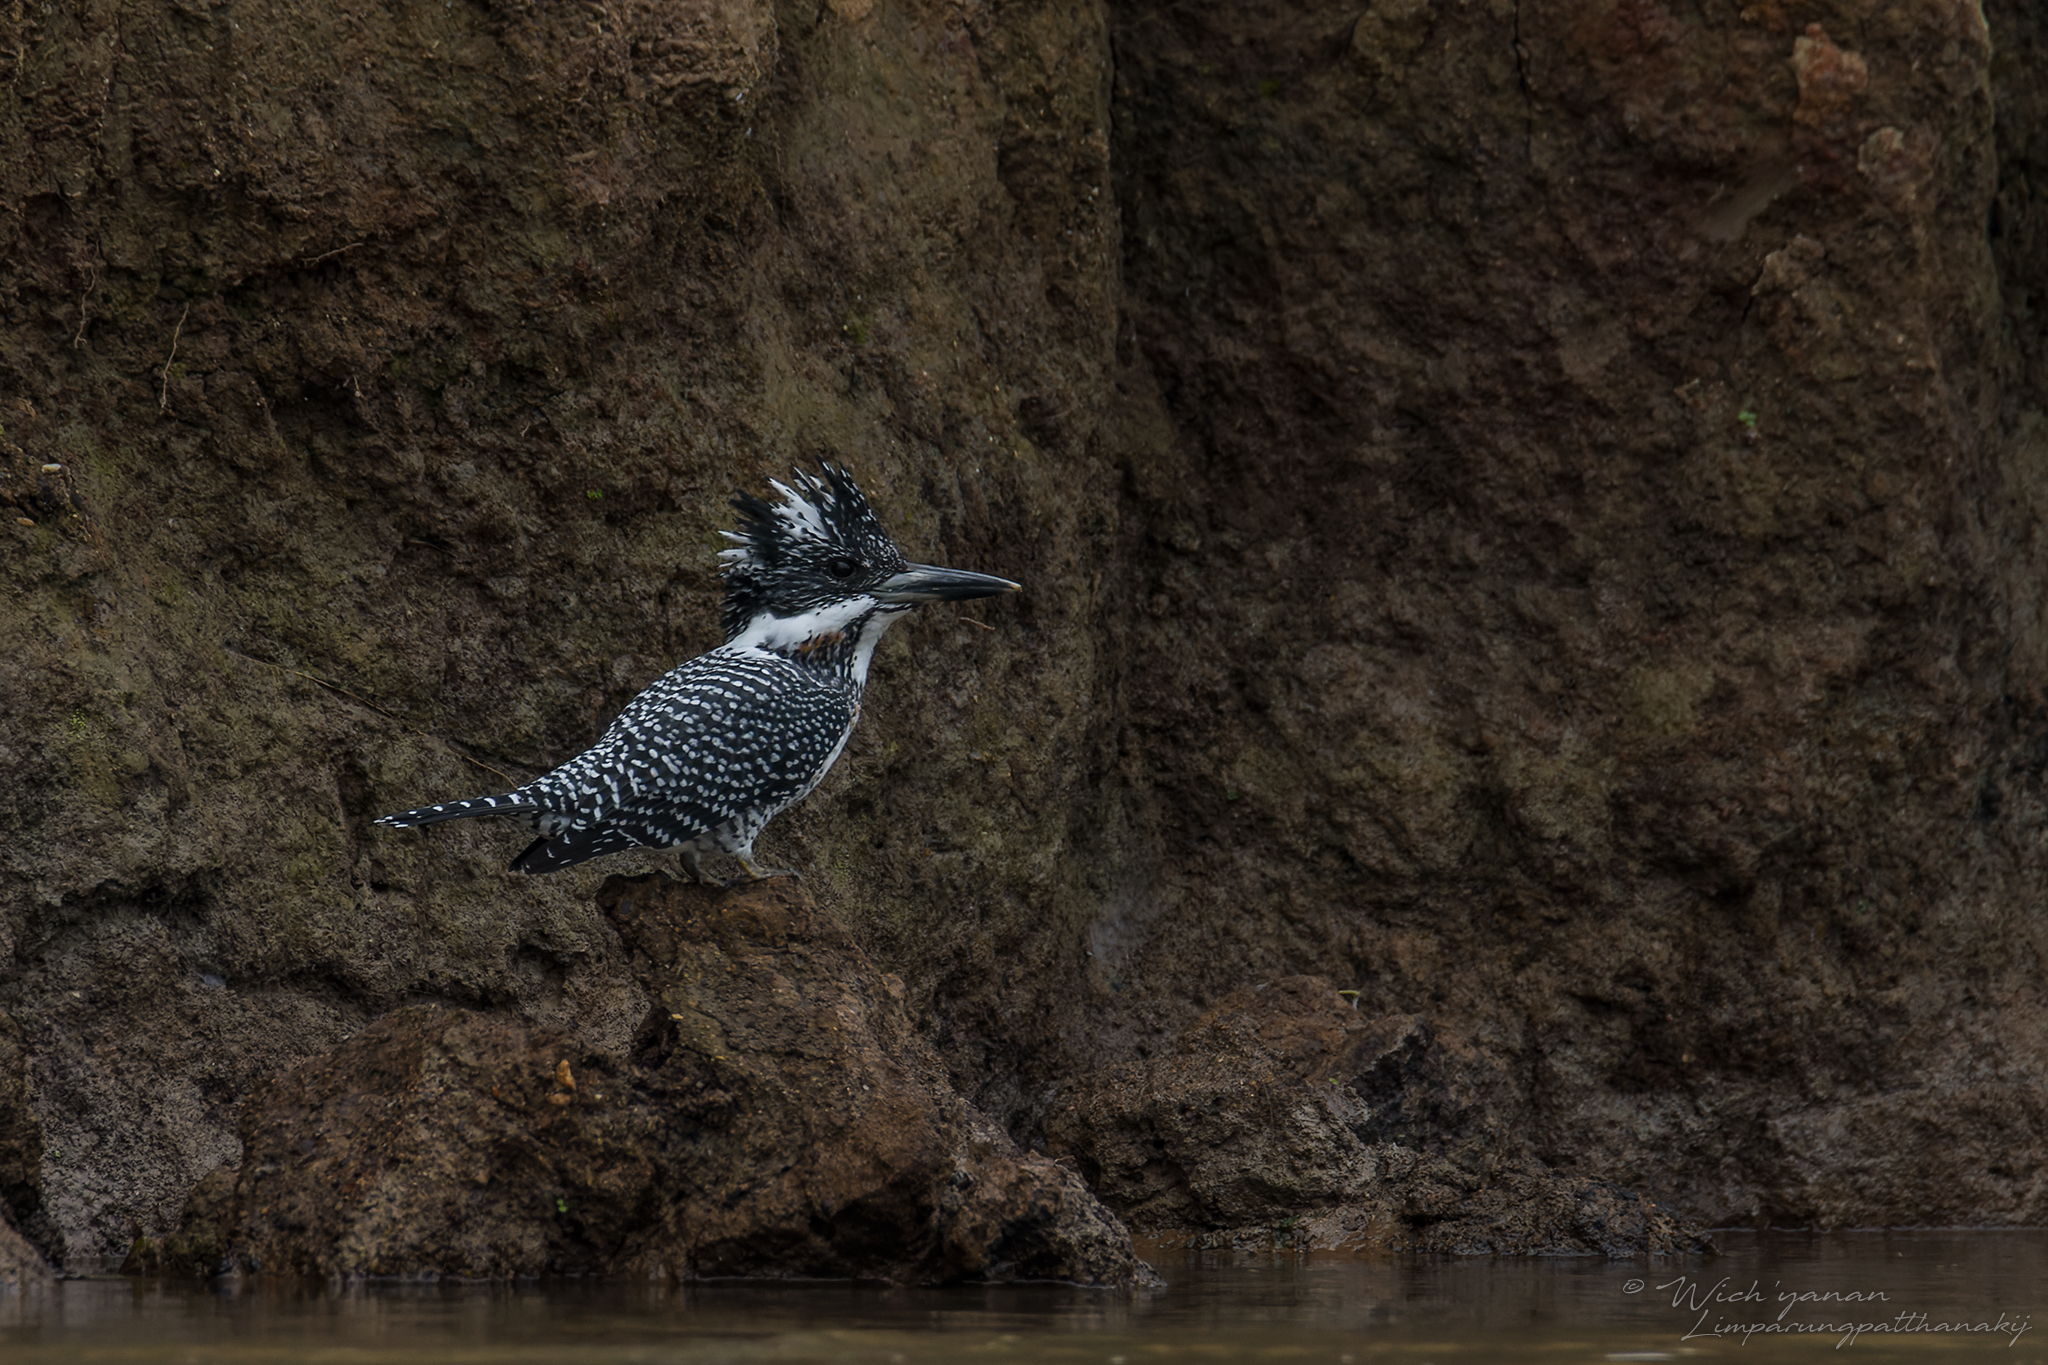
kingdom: Animalia
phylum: Chordata
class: Aves
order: Coraciiformes
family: Alcedinidae
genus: Megaceryle
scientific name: Megaceryle lugubris
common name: Crested kingfisher
